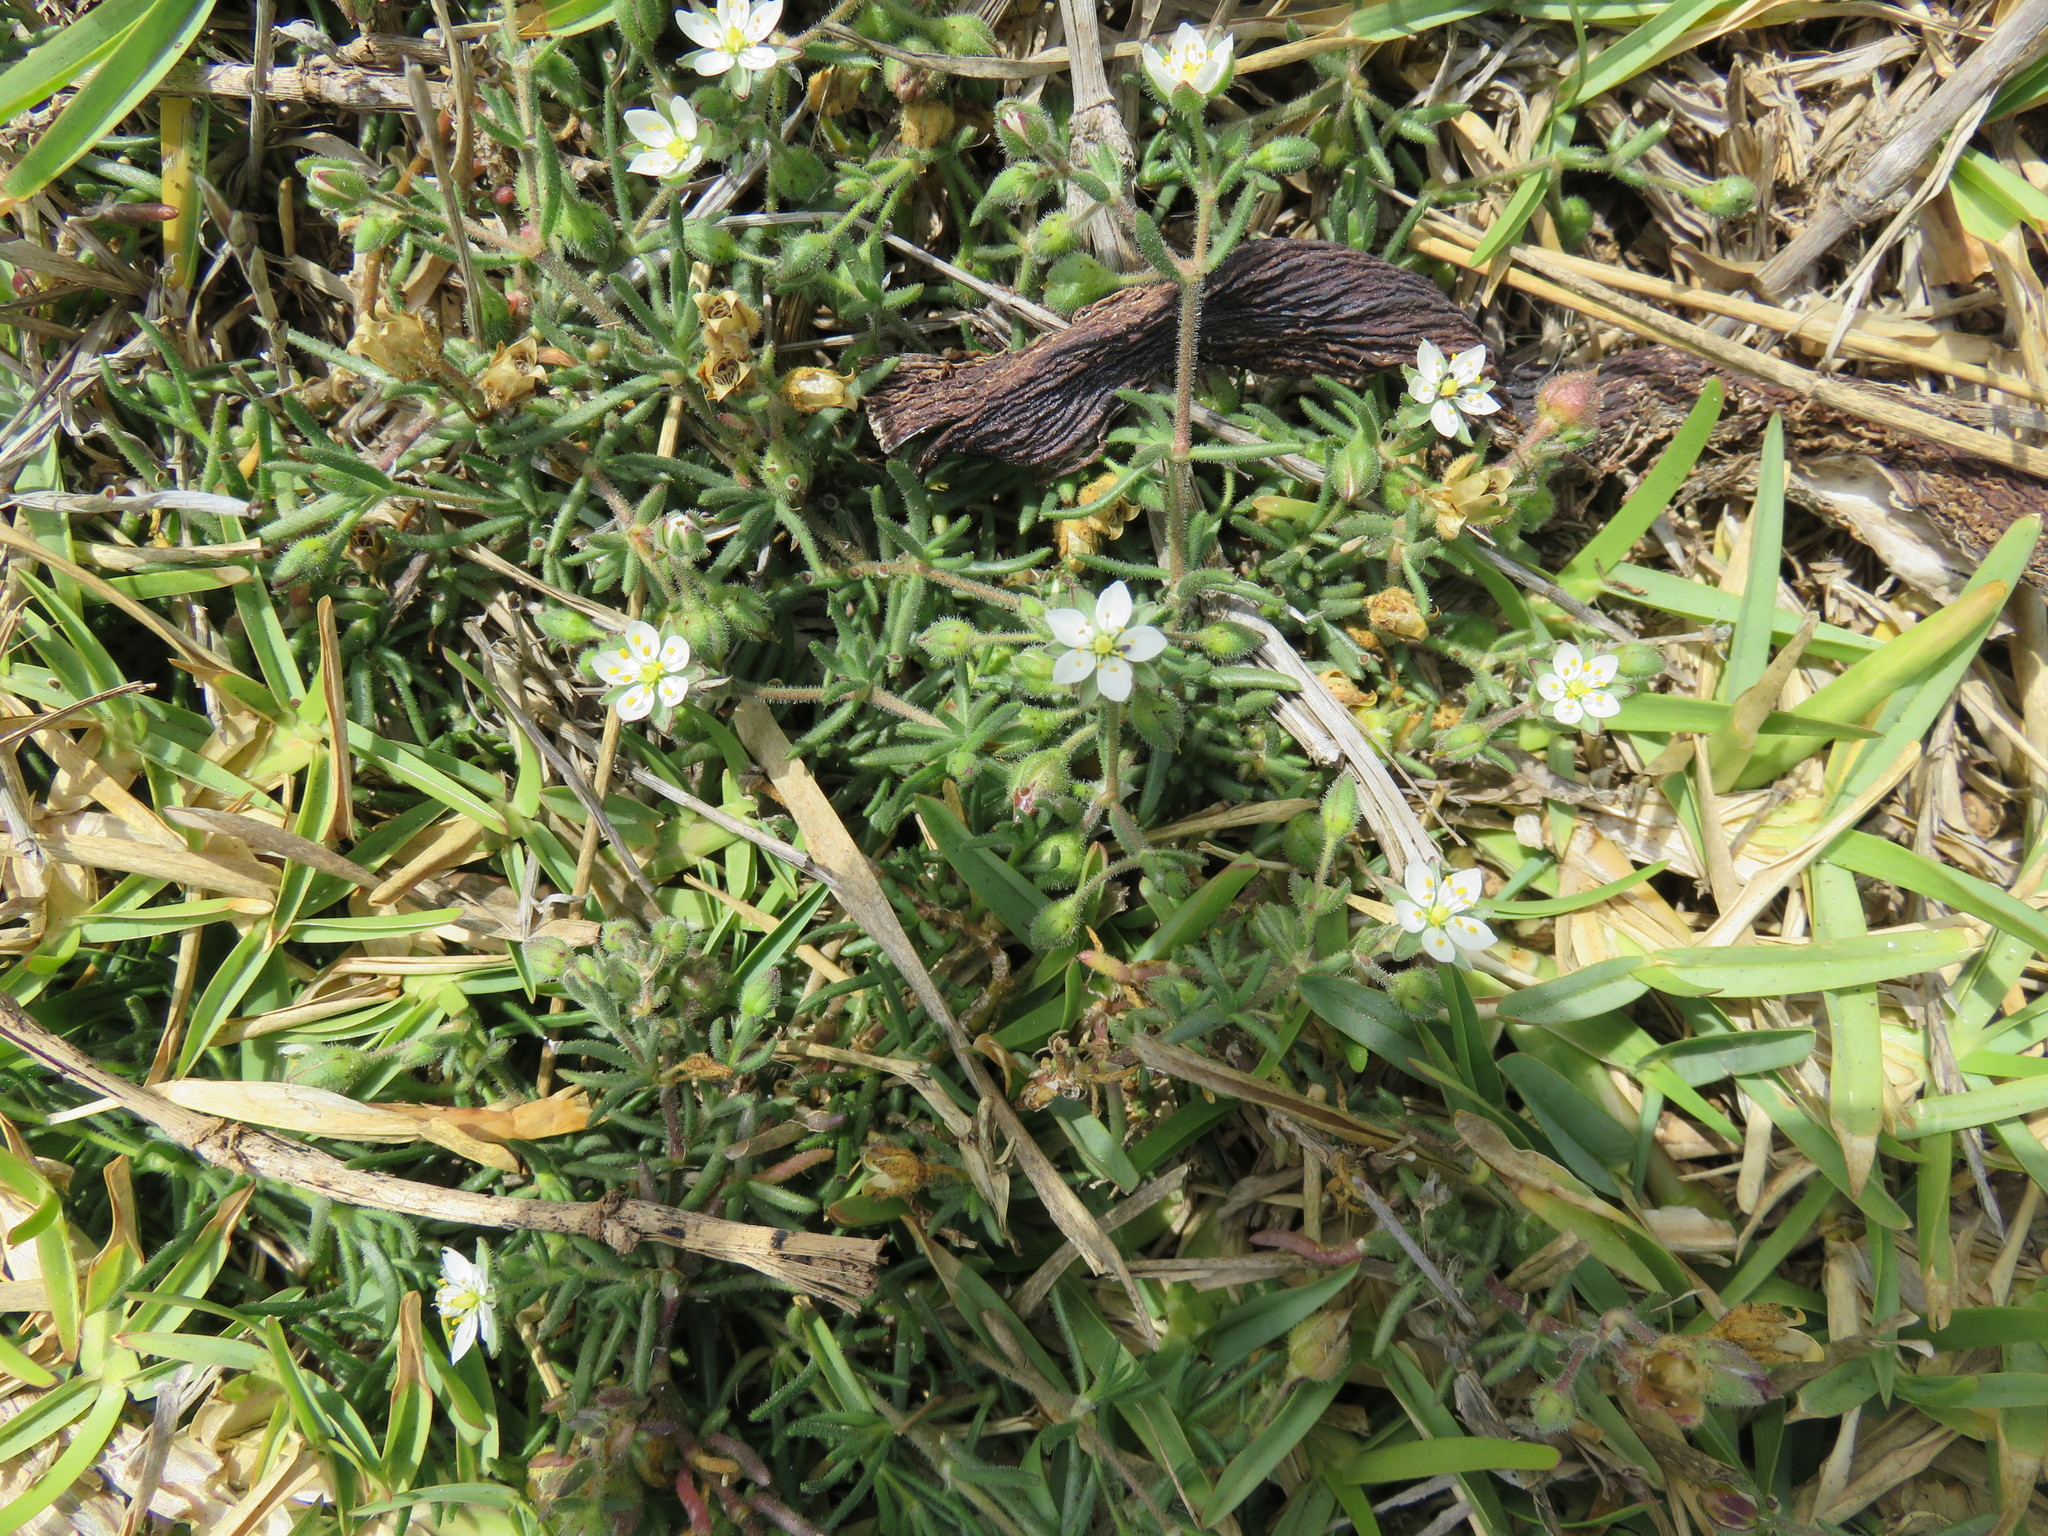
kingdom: Plantae
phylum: Tracheophyta
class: Magnoliopsida
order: Caryophyllales
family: Caryophyllaceae
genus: Spergularia
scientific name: Spergularia media
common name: Greater sea-spurrey
